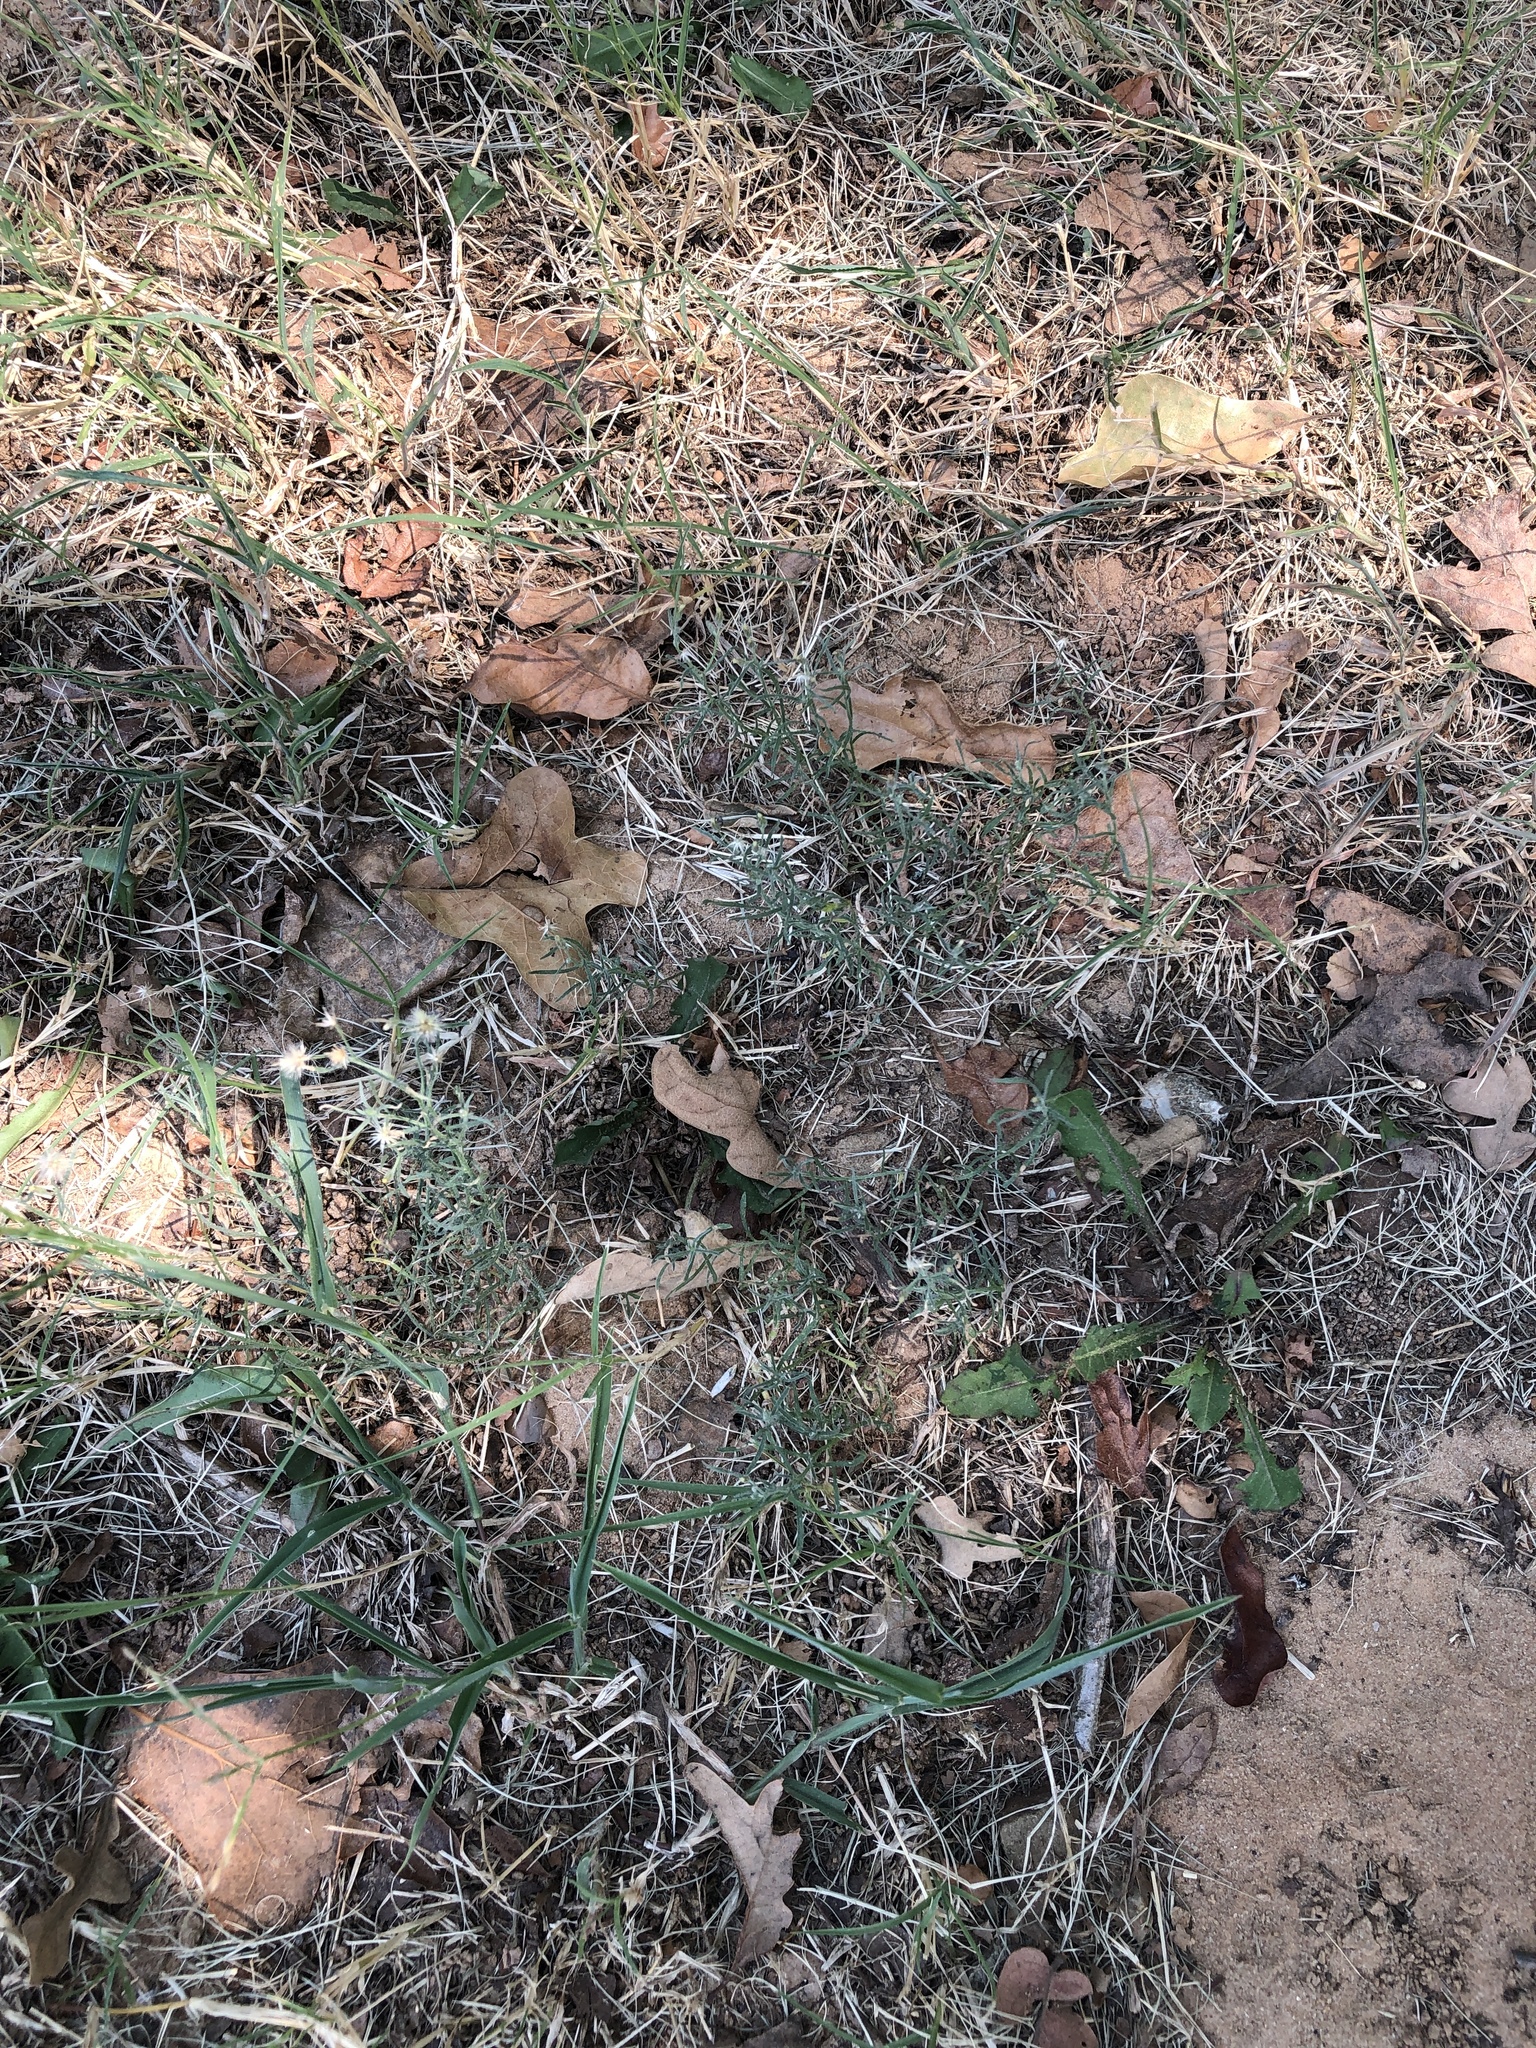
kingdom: Plantae
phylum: Tracheophyta
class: Magnoliopsida
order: Asterales
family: Asteraceae
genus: Erigeron
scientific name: Erigeron divaricatus
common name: Dwarf conyza
